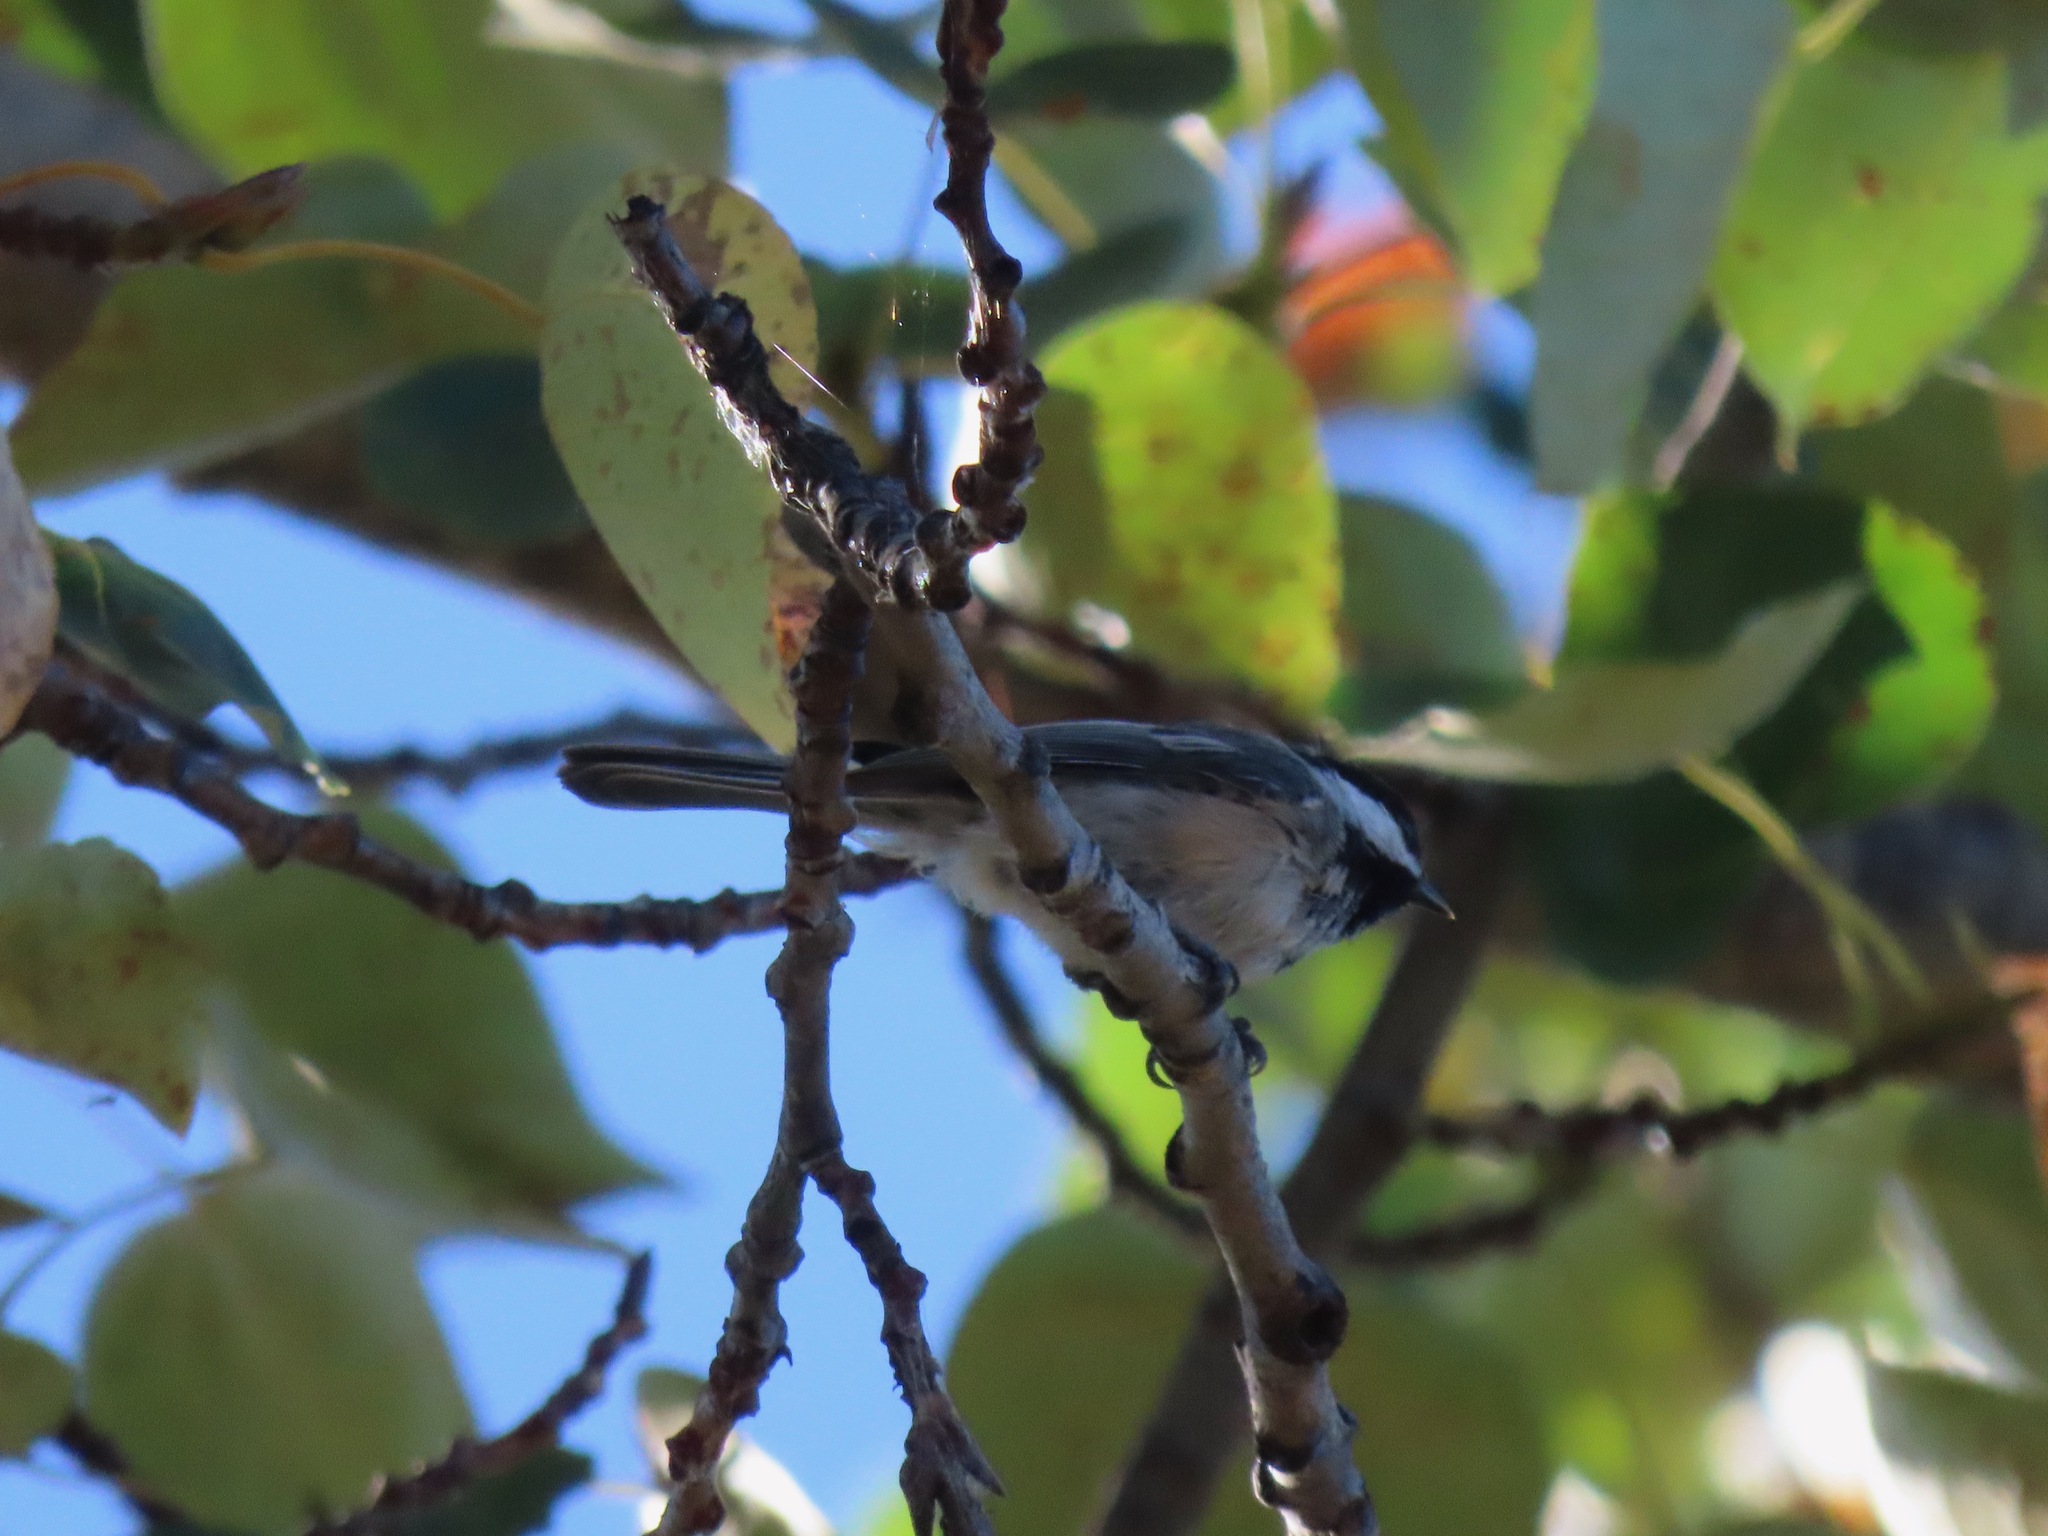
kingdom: Animalia
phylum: Chordata
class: Aves
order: Passeriformes
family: Paridae
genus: Poecile
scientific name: Poecile atricapillus
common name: Black-capped chickadee
